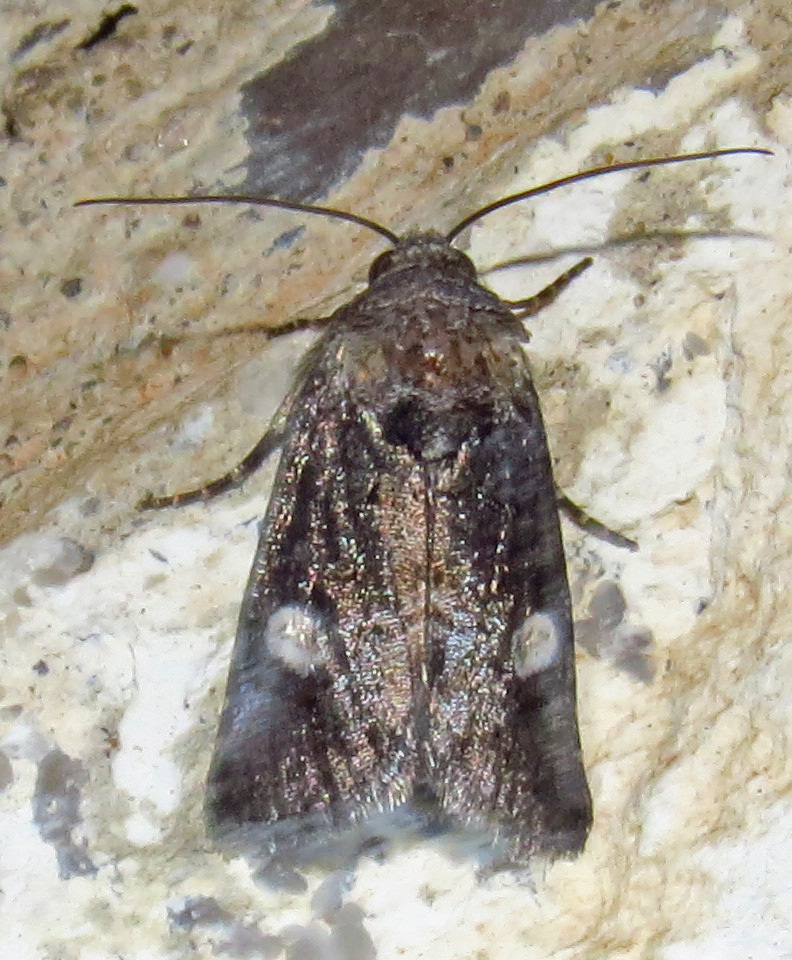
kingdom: Animalia
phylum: Arthropoda
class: Insecta
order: Lepidoptera
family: Noctuidae
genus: Copanarta
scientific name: Copanarta aurea
